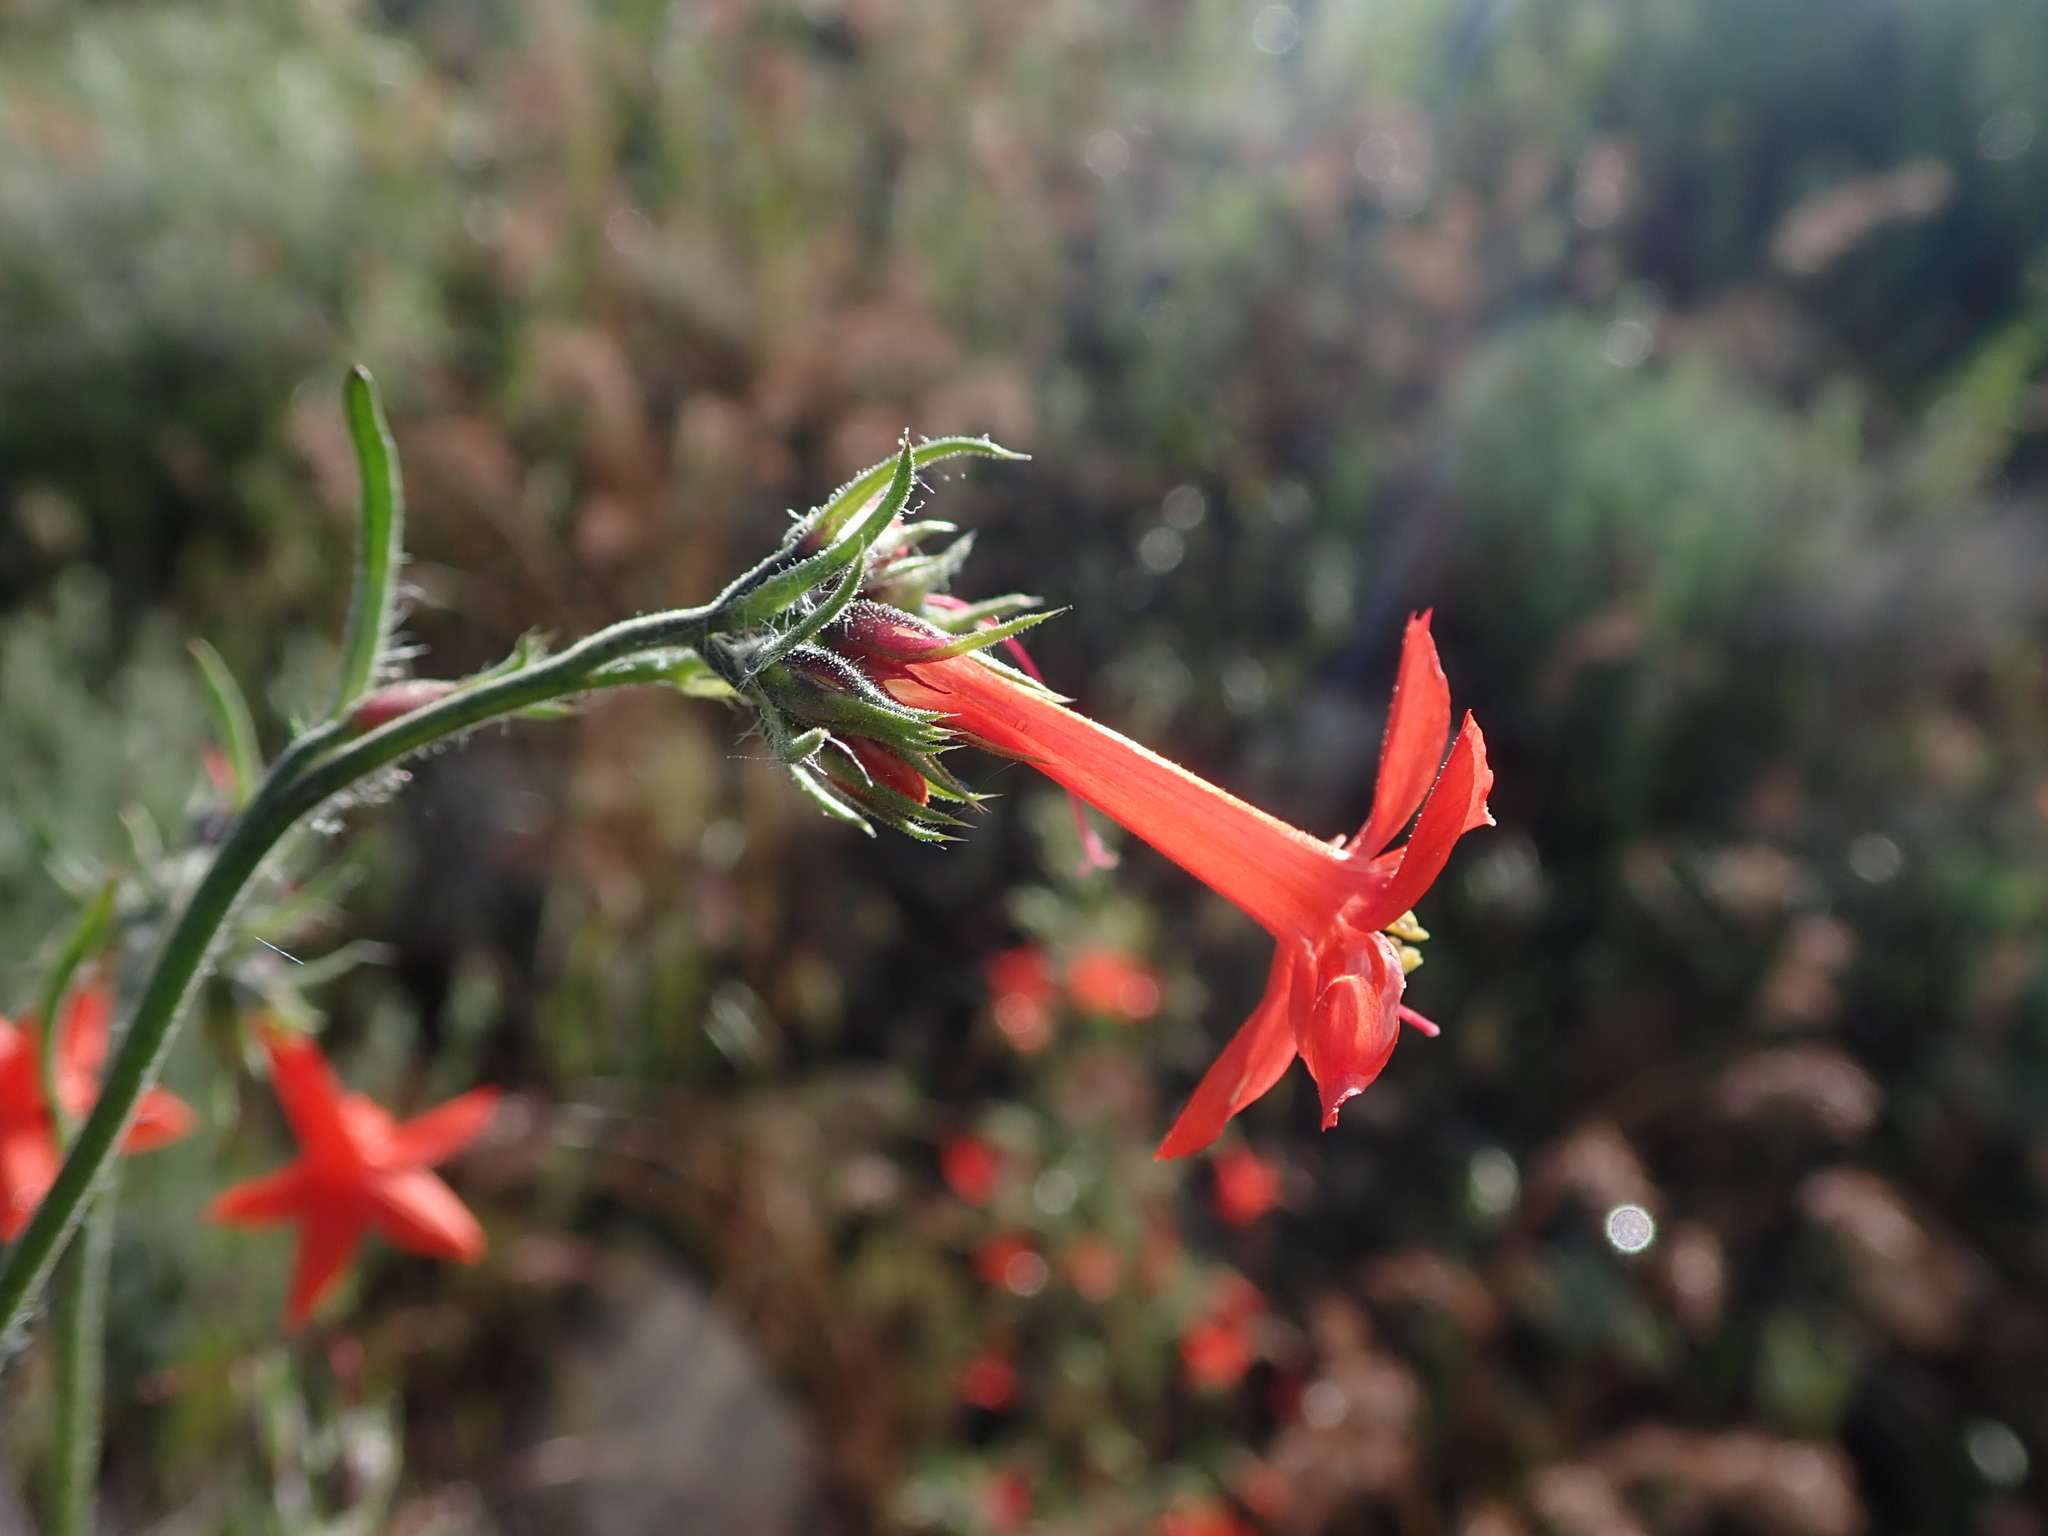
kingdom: Plantae
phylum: Tracheophyta
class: Magnoliopsida
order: Ericales
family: Polemoniaceae
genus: Ipomopsis
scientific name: Ipomopsis aggregata
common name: Scarlet gilia
